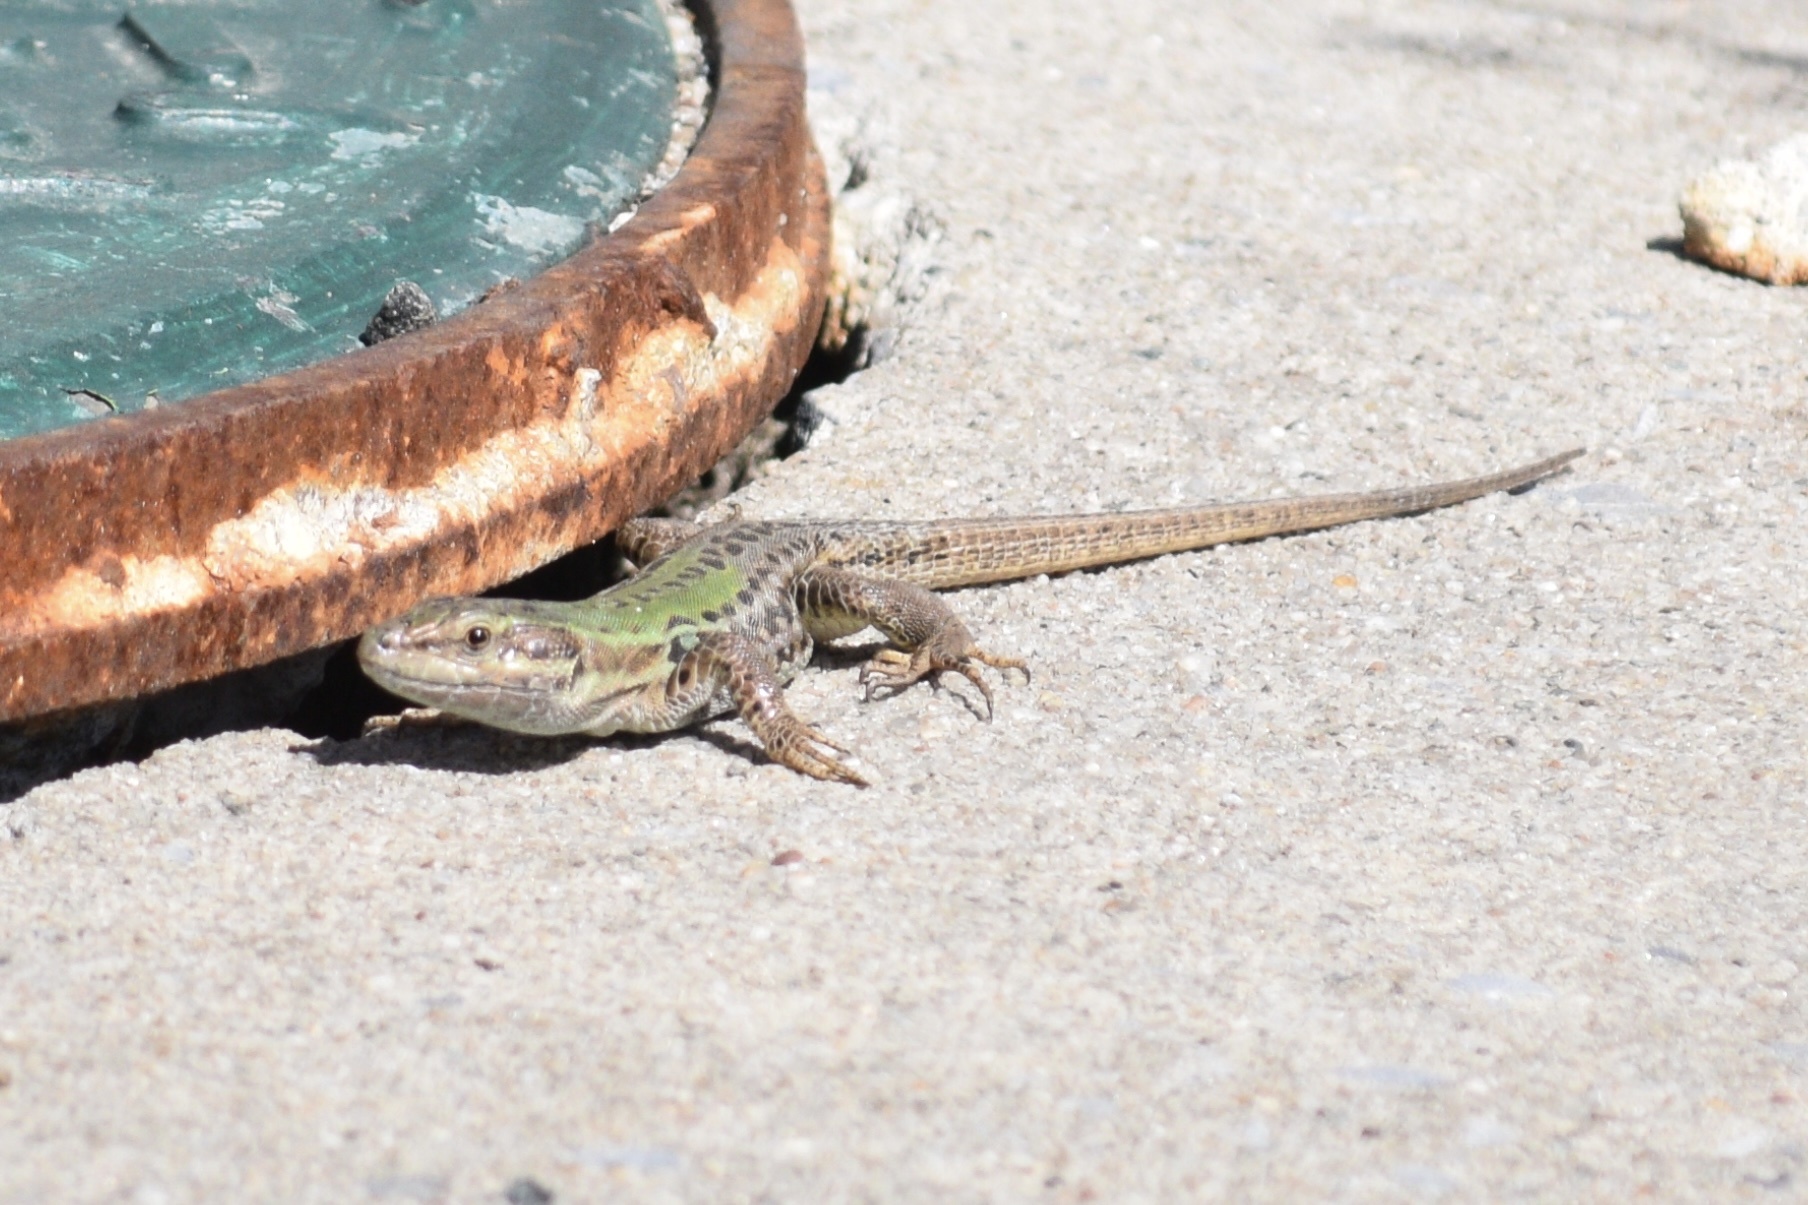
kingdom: Animalia
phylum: Chordata
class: Squamata
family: Lacertidae
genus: Podarcis
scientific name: Podarcis siculus
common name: Italian wall lizard
